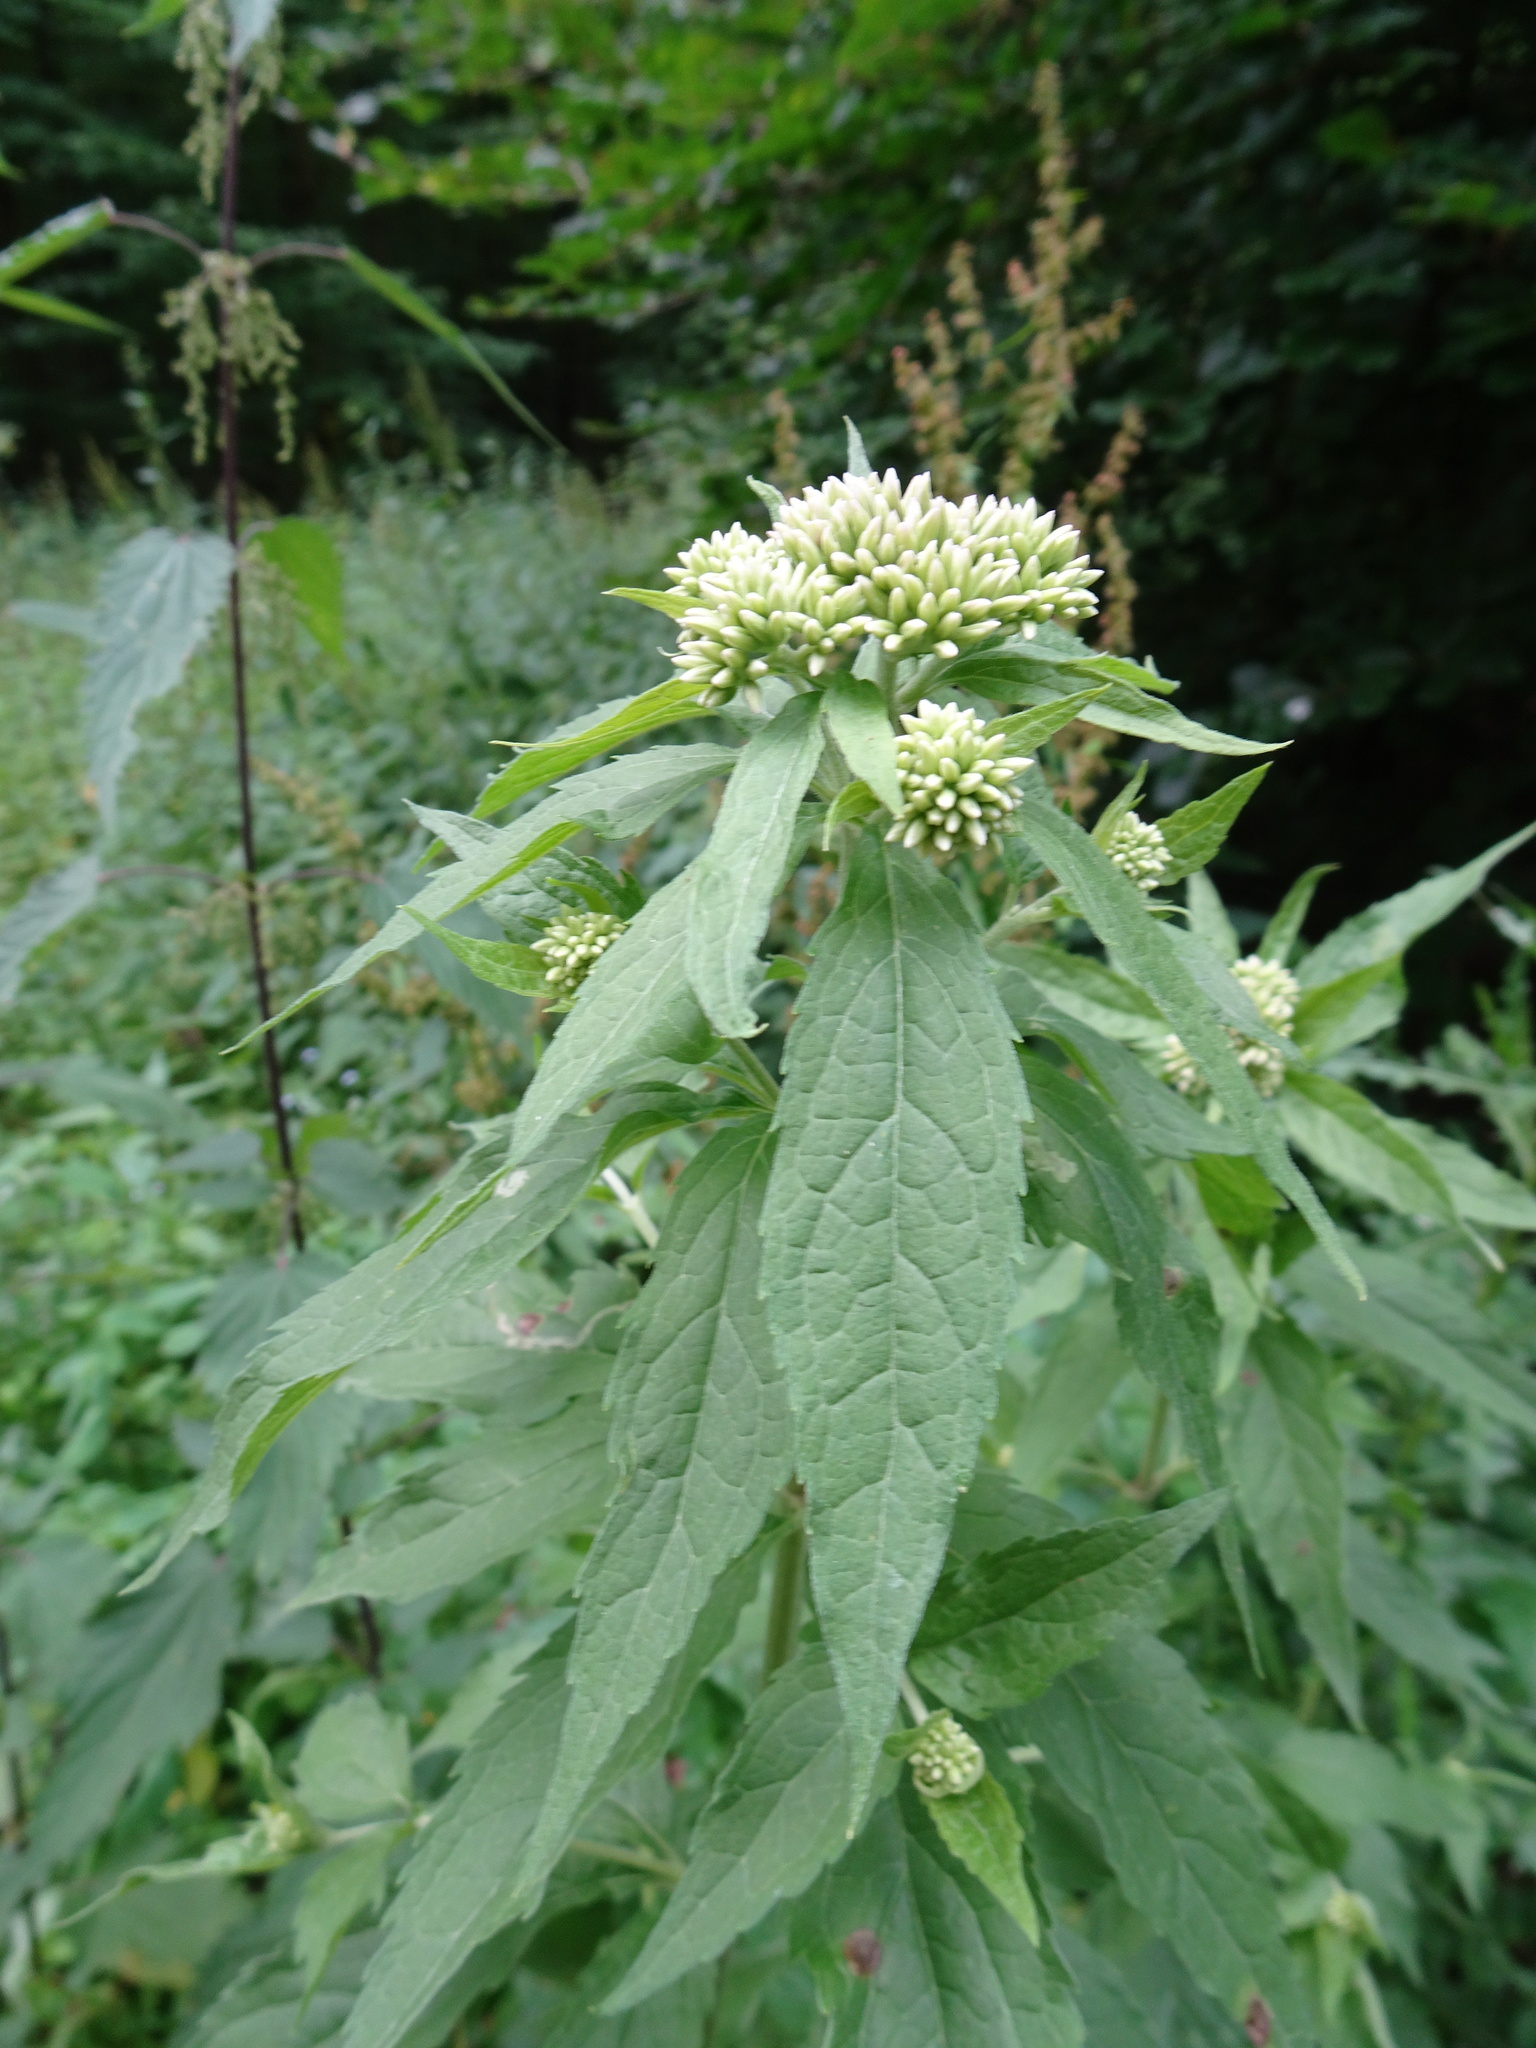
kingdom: Plantae
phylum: Tracheophyta
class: Magnoliopsida
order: Asterales
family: Asteraceae
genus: Eupatorium
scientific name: Eupatorium cannabinum
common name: Hemp-agrimony
